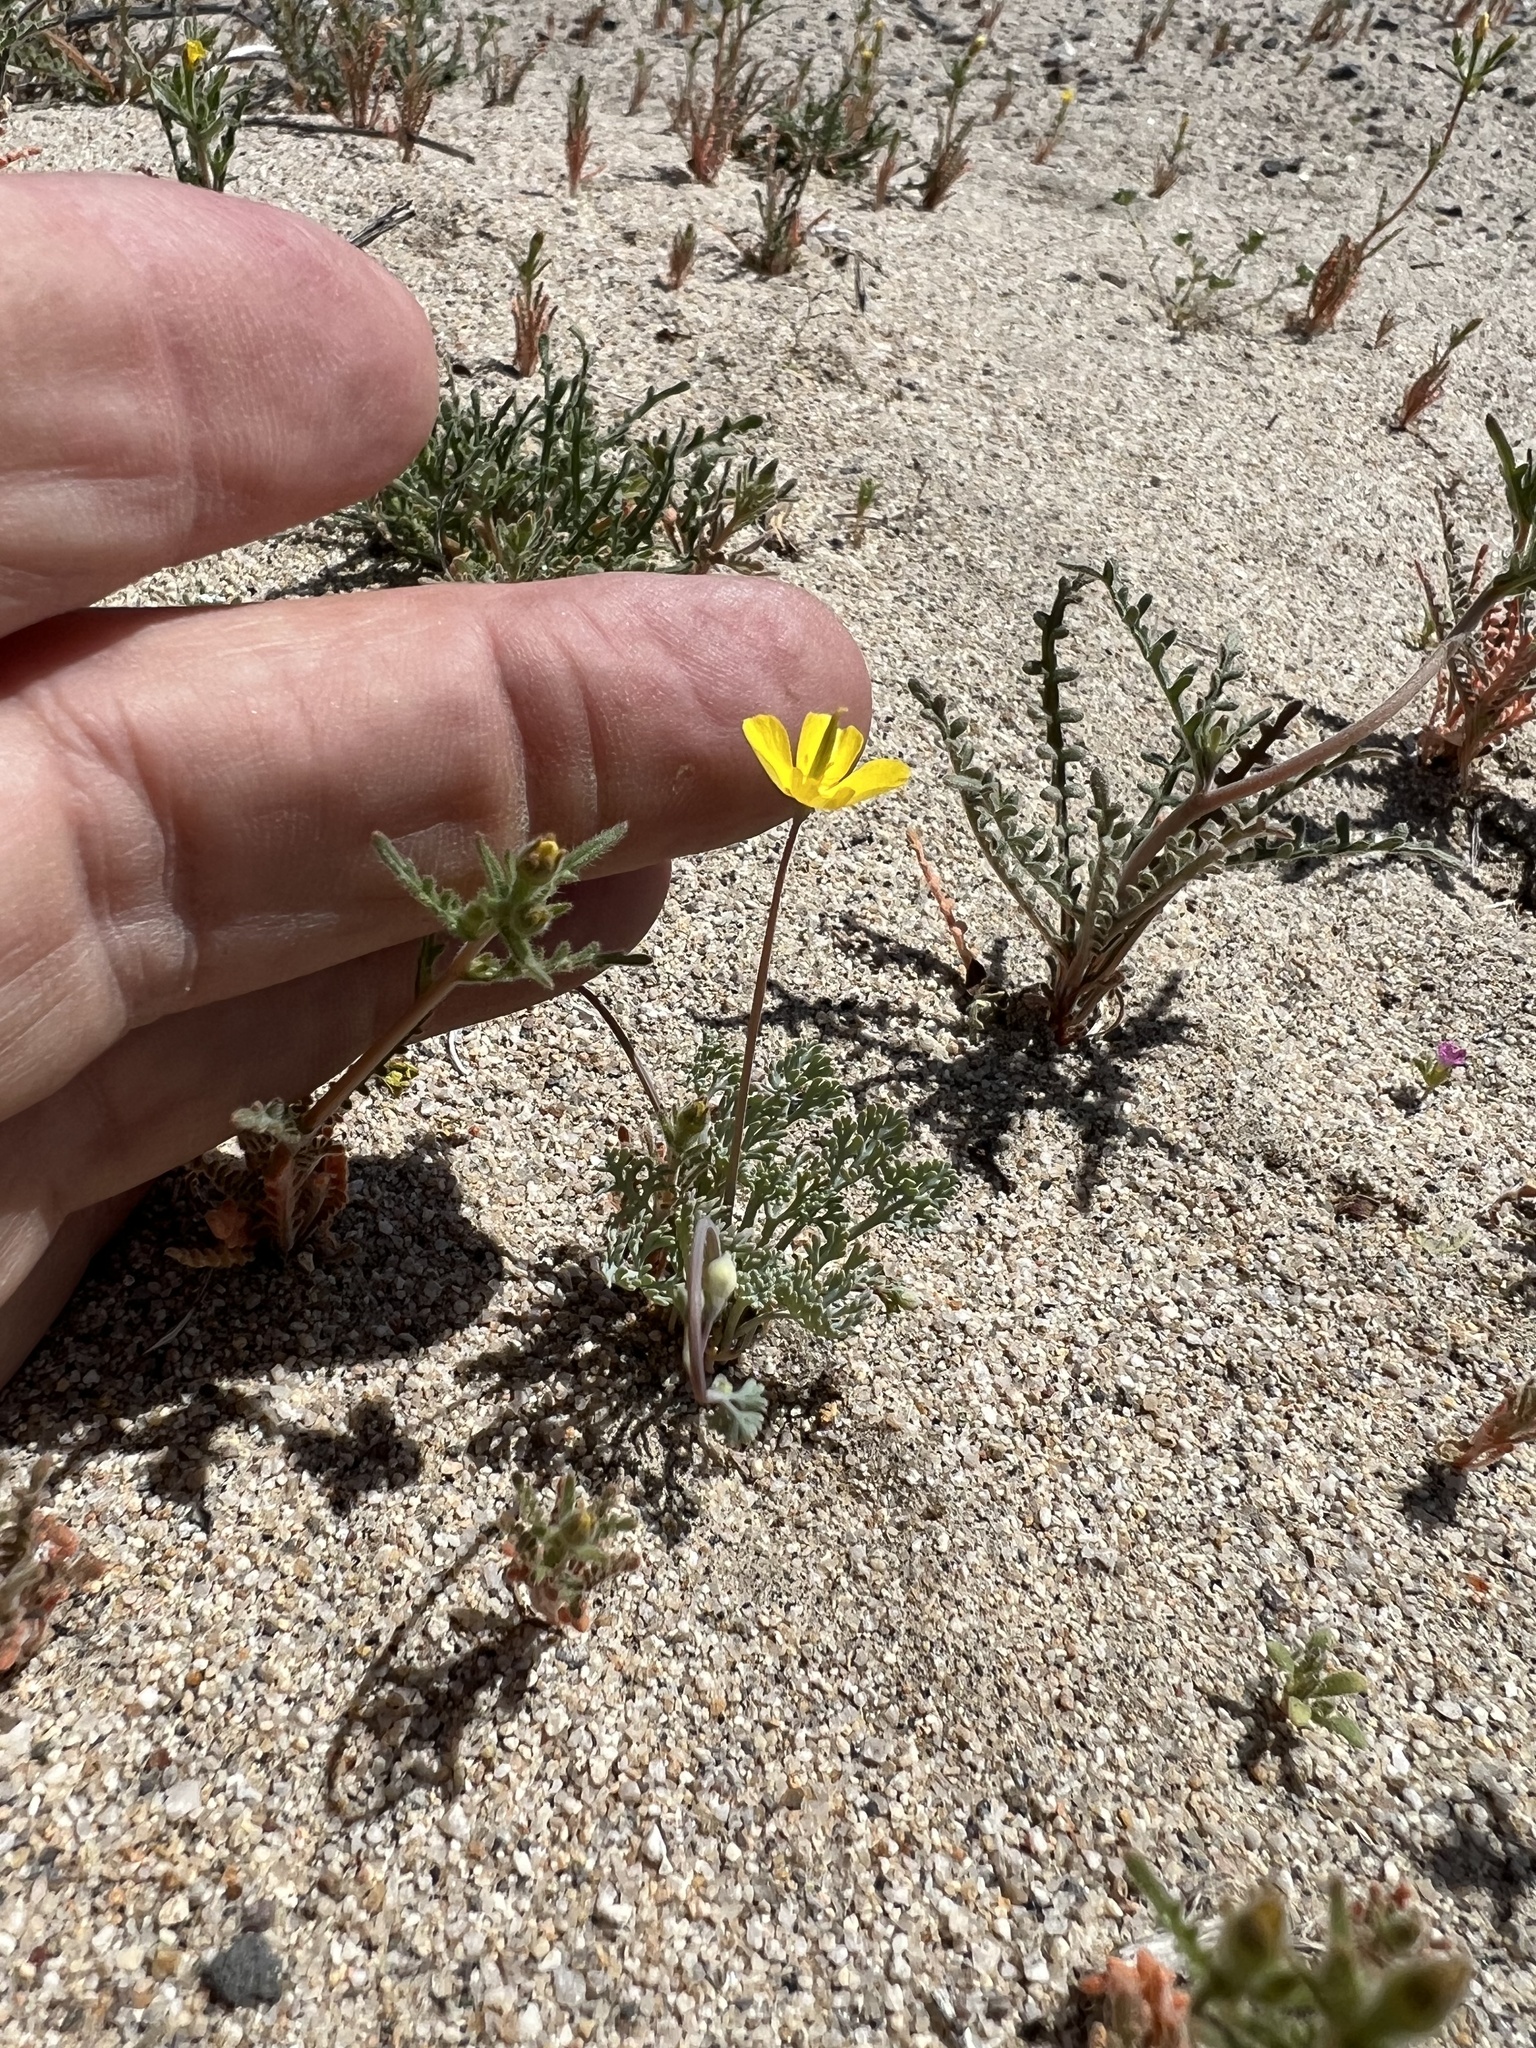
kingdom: Plantae
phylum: Tracheophyta
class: Magnoliopsida
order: Ranunculales
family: Papaveraceae
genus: Eschscholzia
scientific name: Eschscholzia minutiflora
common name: Small-flower california-poppy
